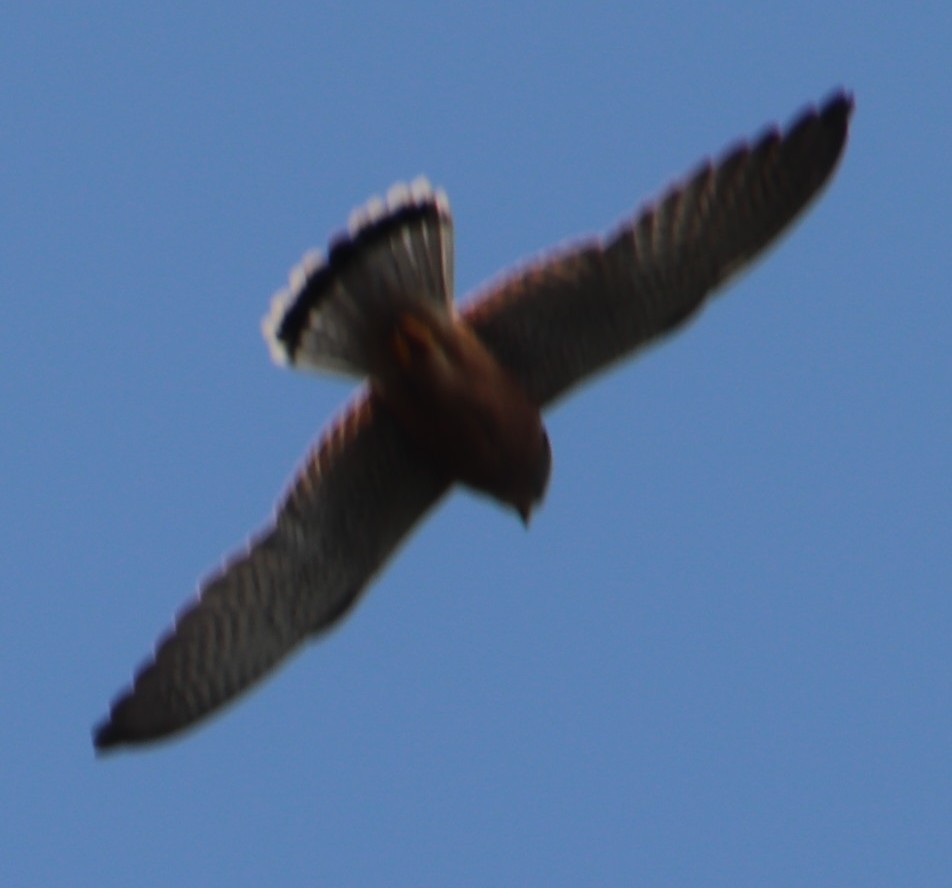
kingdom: Animalia
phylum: Chordata
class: Aves
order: Falconiformes
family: Falconidae
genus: Falco
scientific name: Falco rupicolus
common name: Rock kestrel
